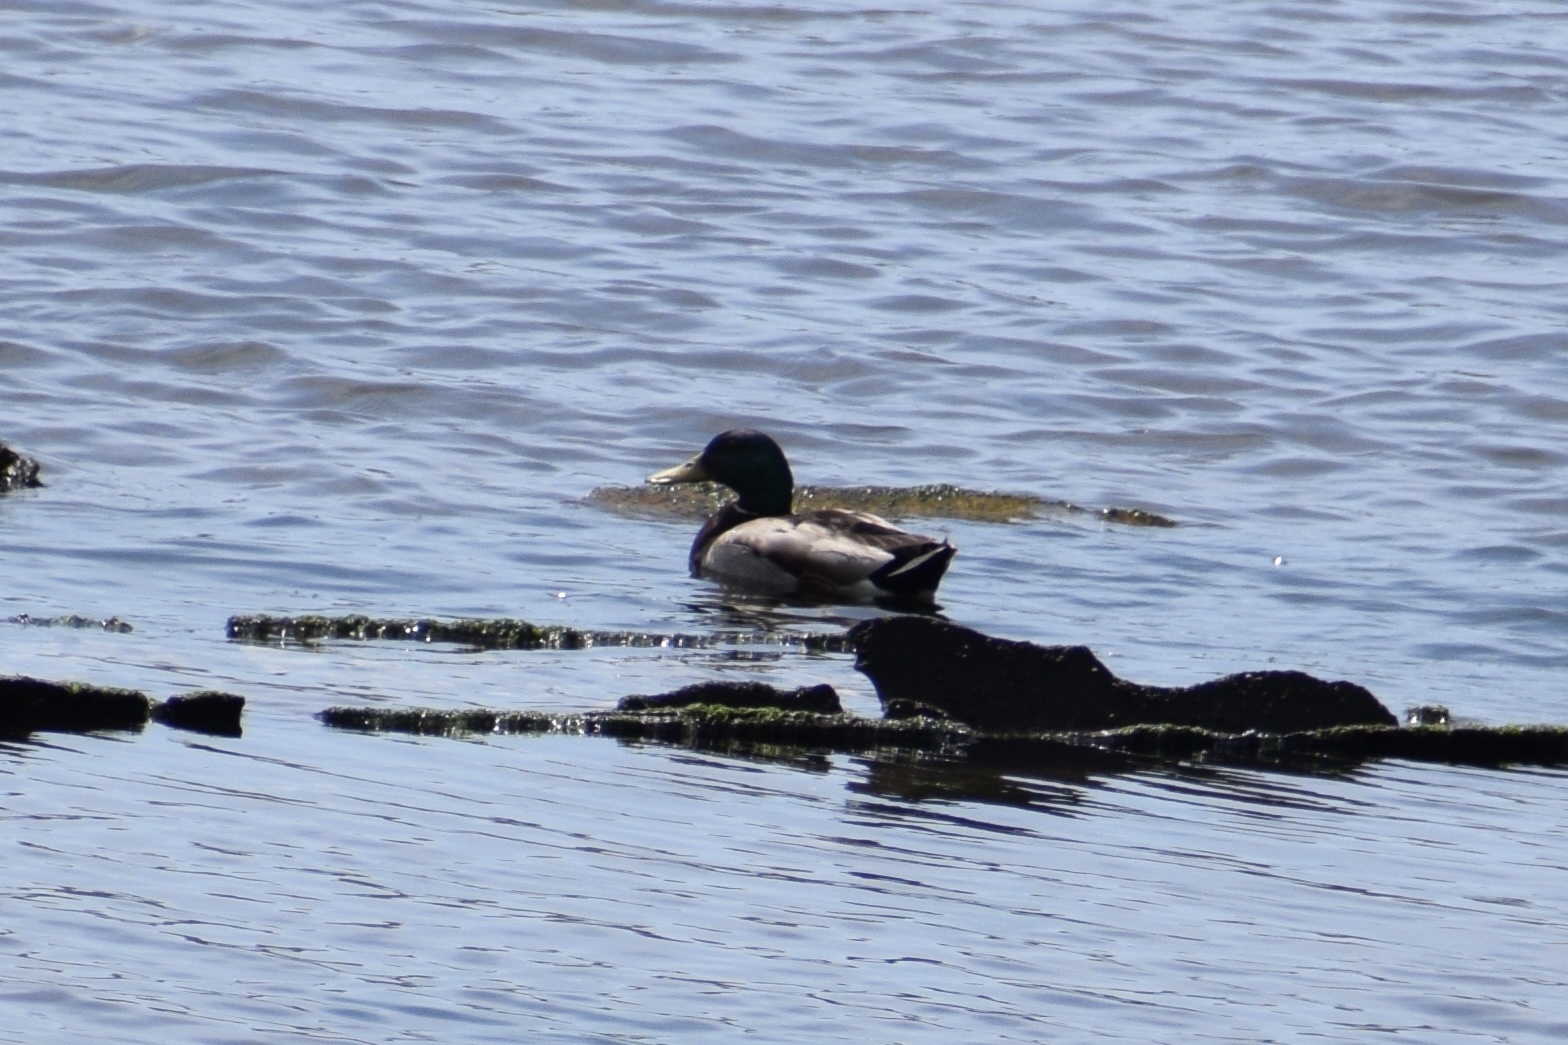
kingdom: Animalia
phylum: Chordata
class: Aves
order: Anseriformes
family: Anatidae
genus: Anas
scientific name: Anas platyrhynchos
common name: Mallard
